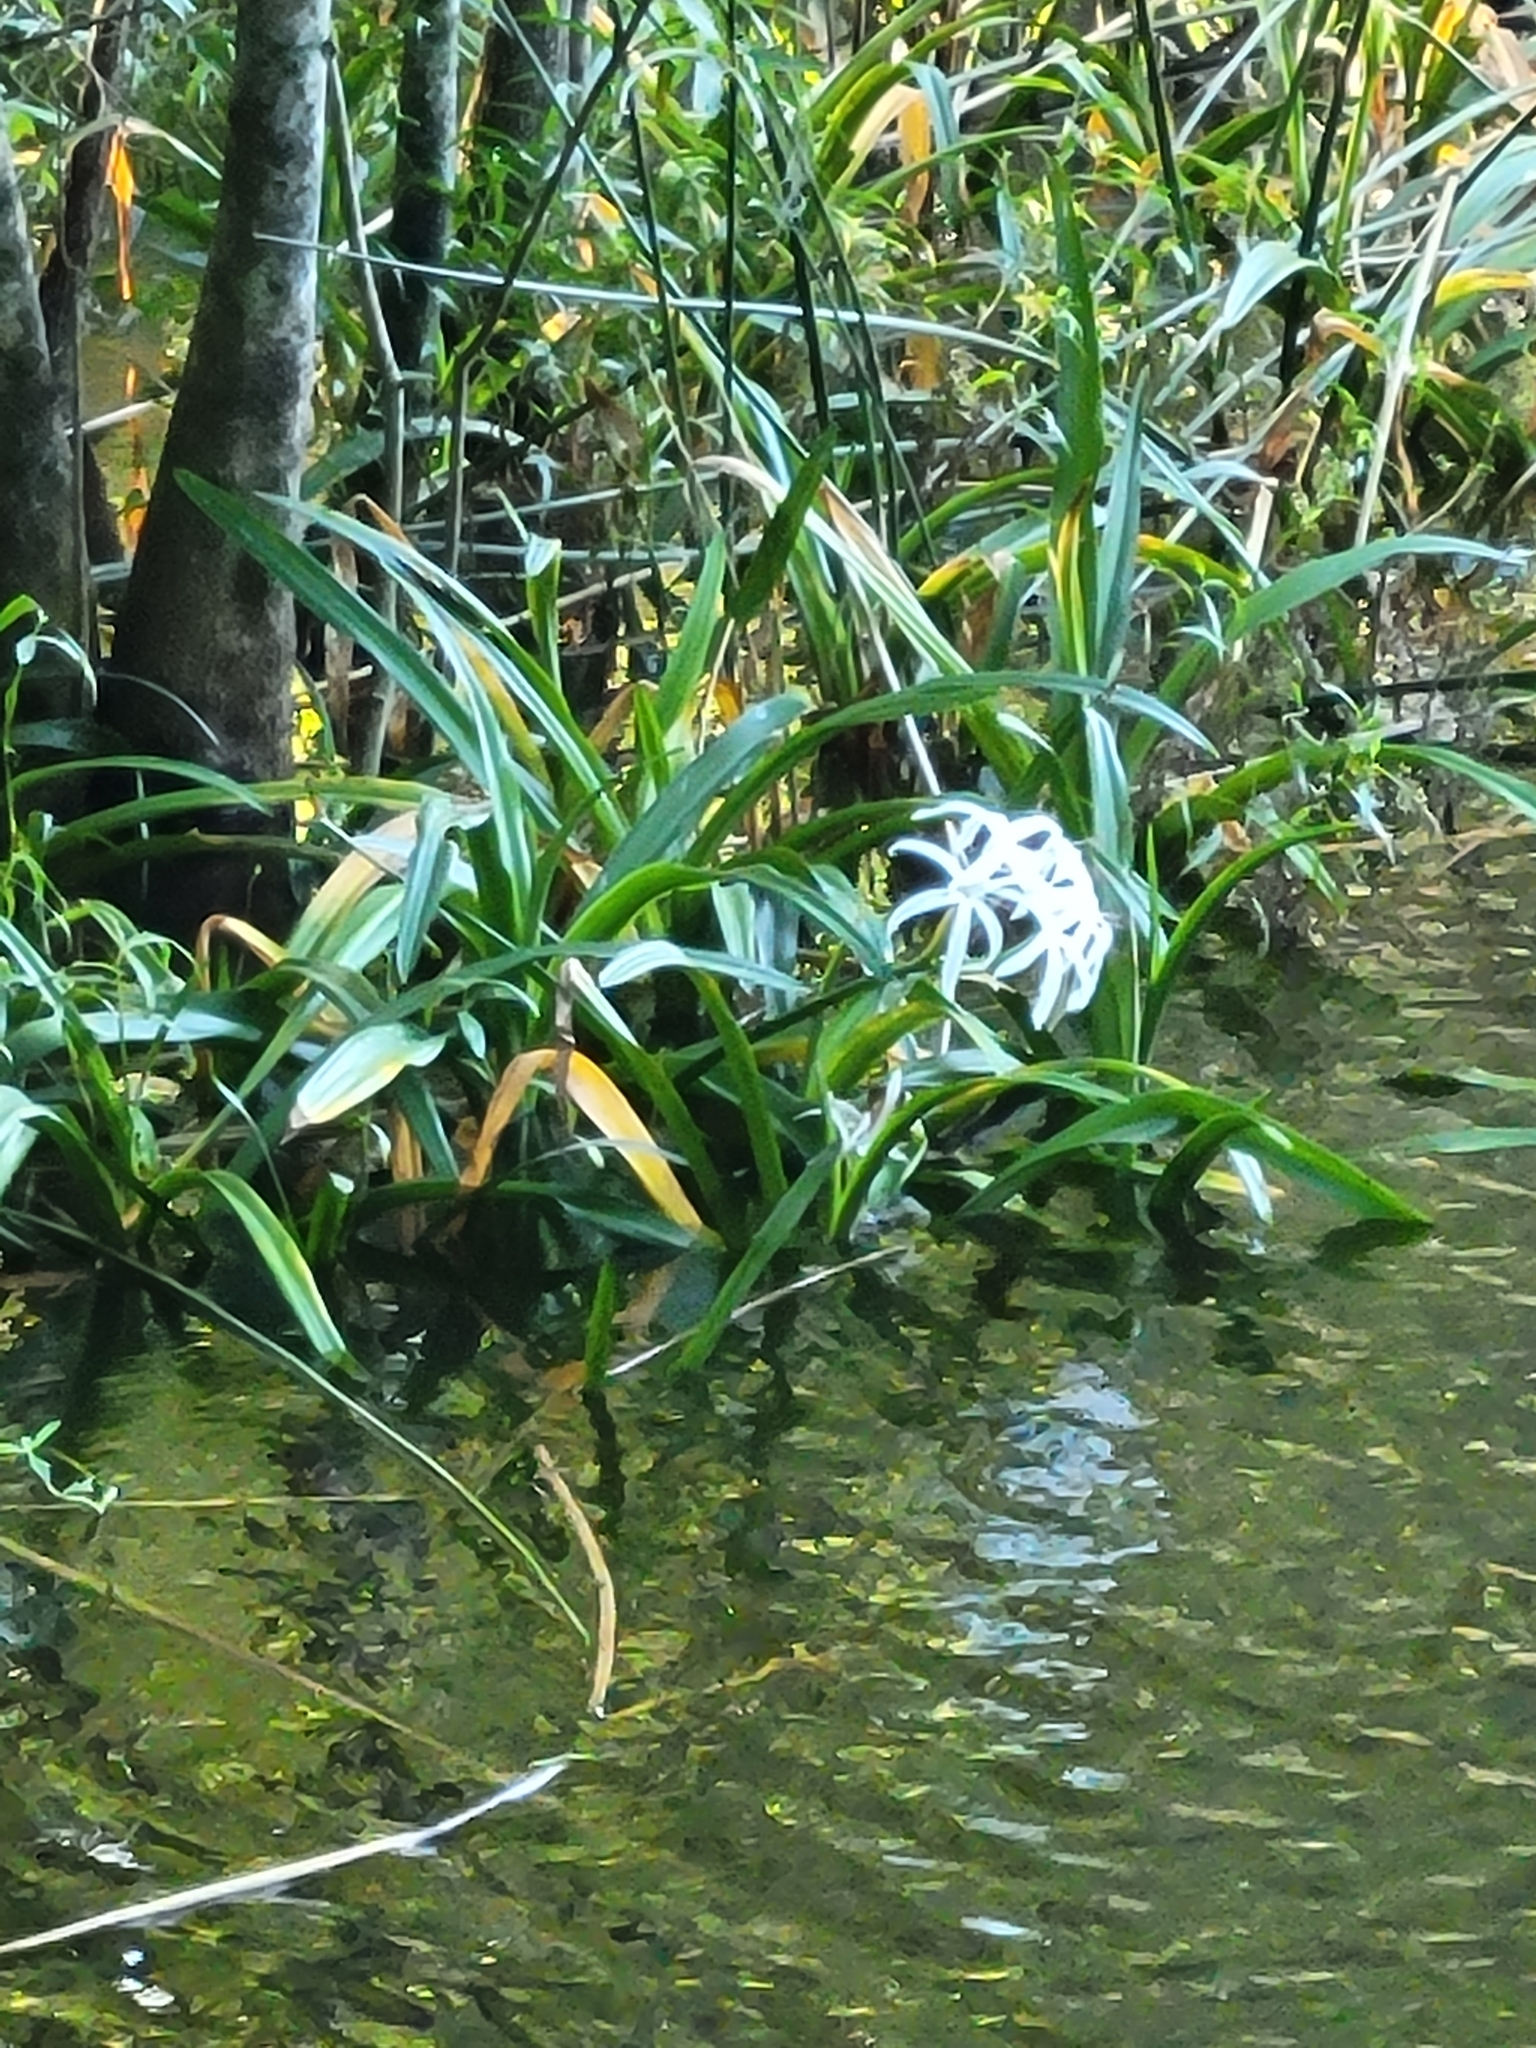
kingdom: Plantae
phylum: Tracheophyta
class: Liliopsida
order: Asparagales
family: Amaryllidaceae
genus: Crinum
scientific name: Crinum americanum
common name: Florida swamp-lily
